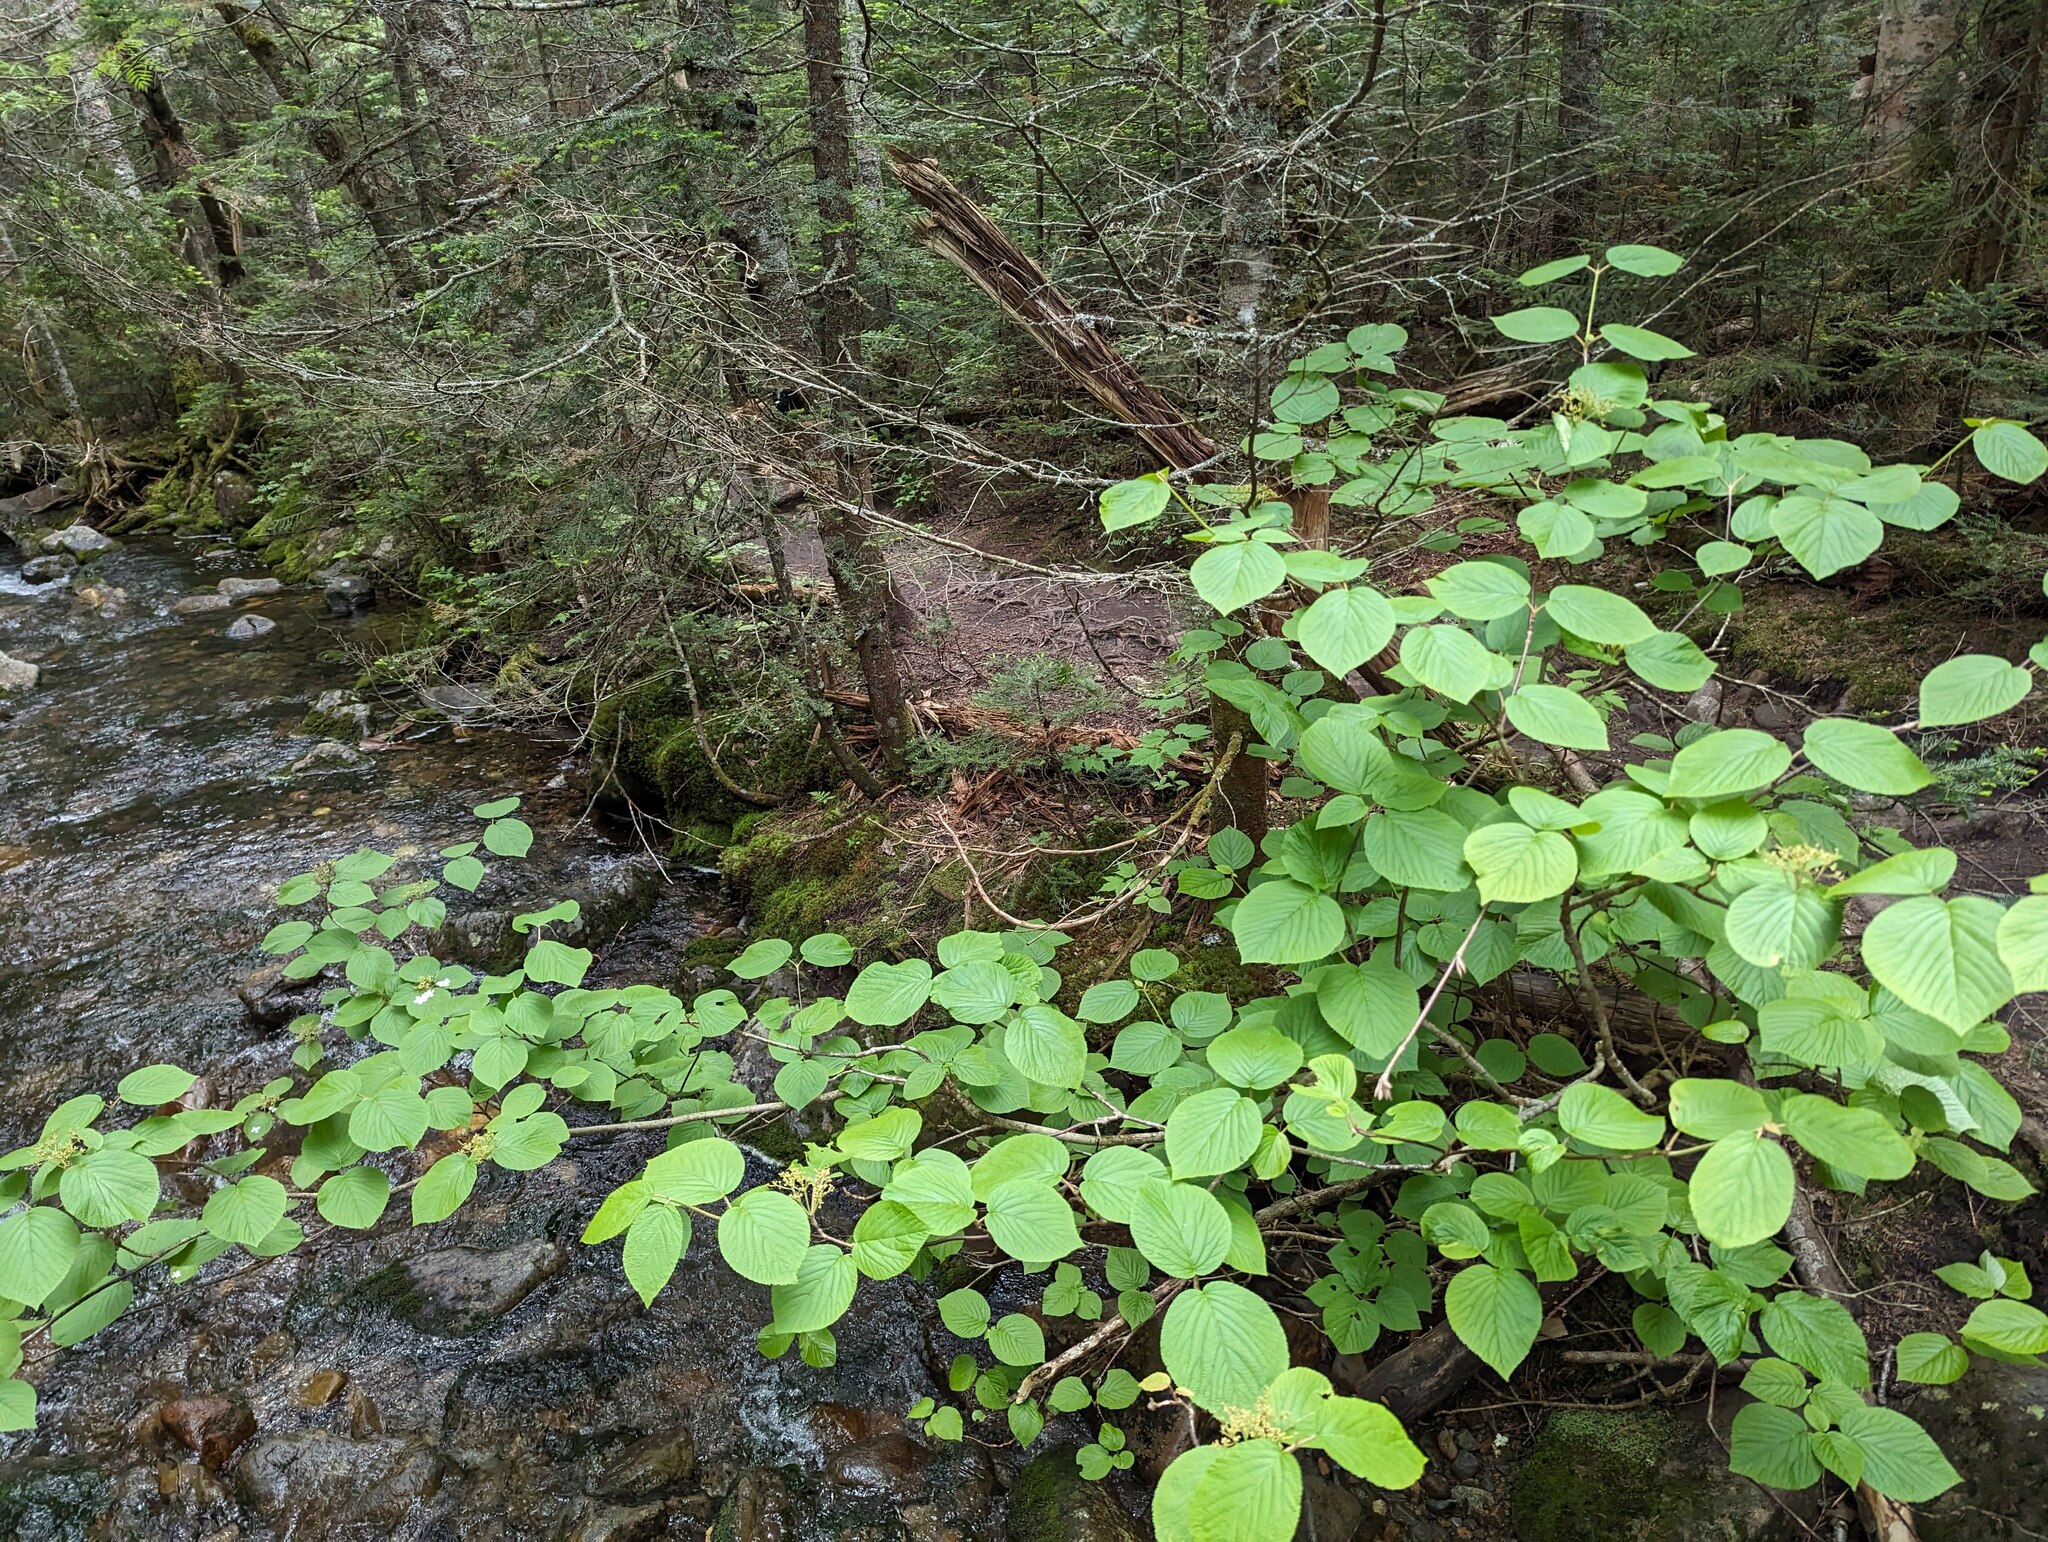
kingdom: Plantae
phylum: Tracheophyta
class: Magnoliopsida
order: Dipsacales
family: Viburnaceae
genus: Viburnum
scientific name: Viburnum lantanoides
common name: Hobblebush
